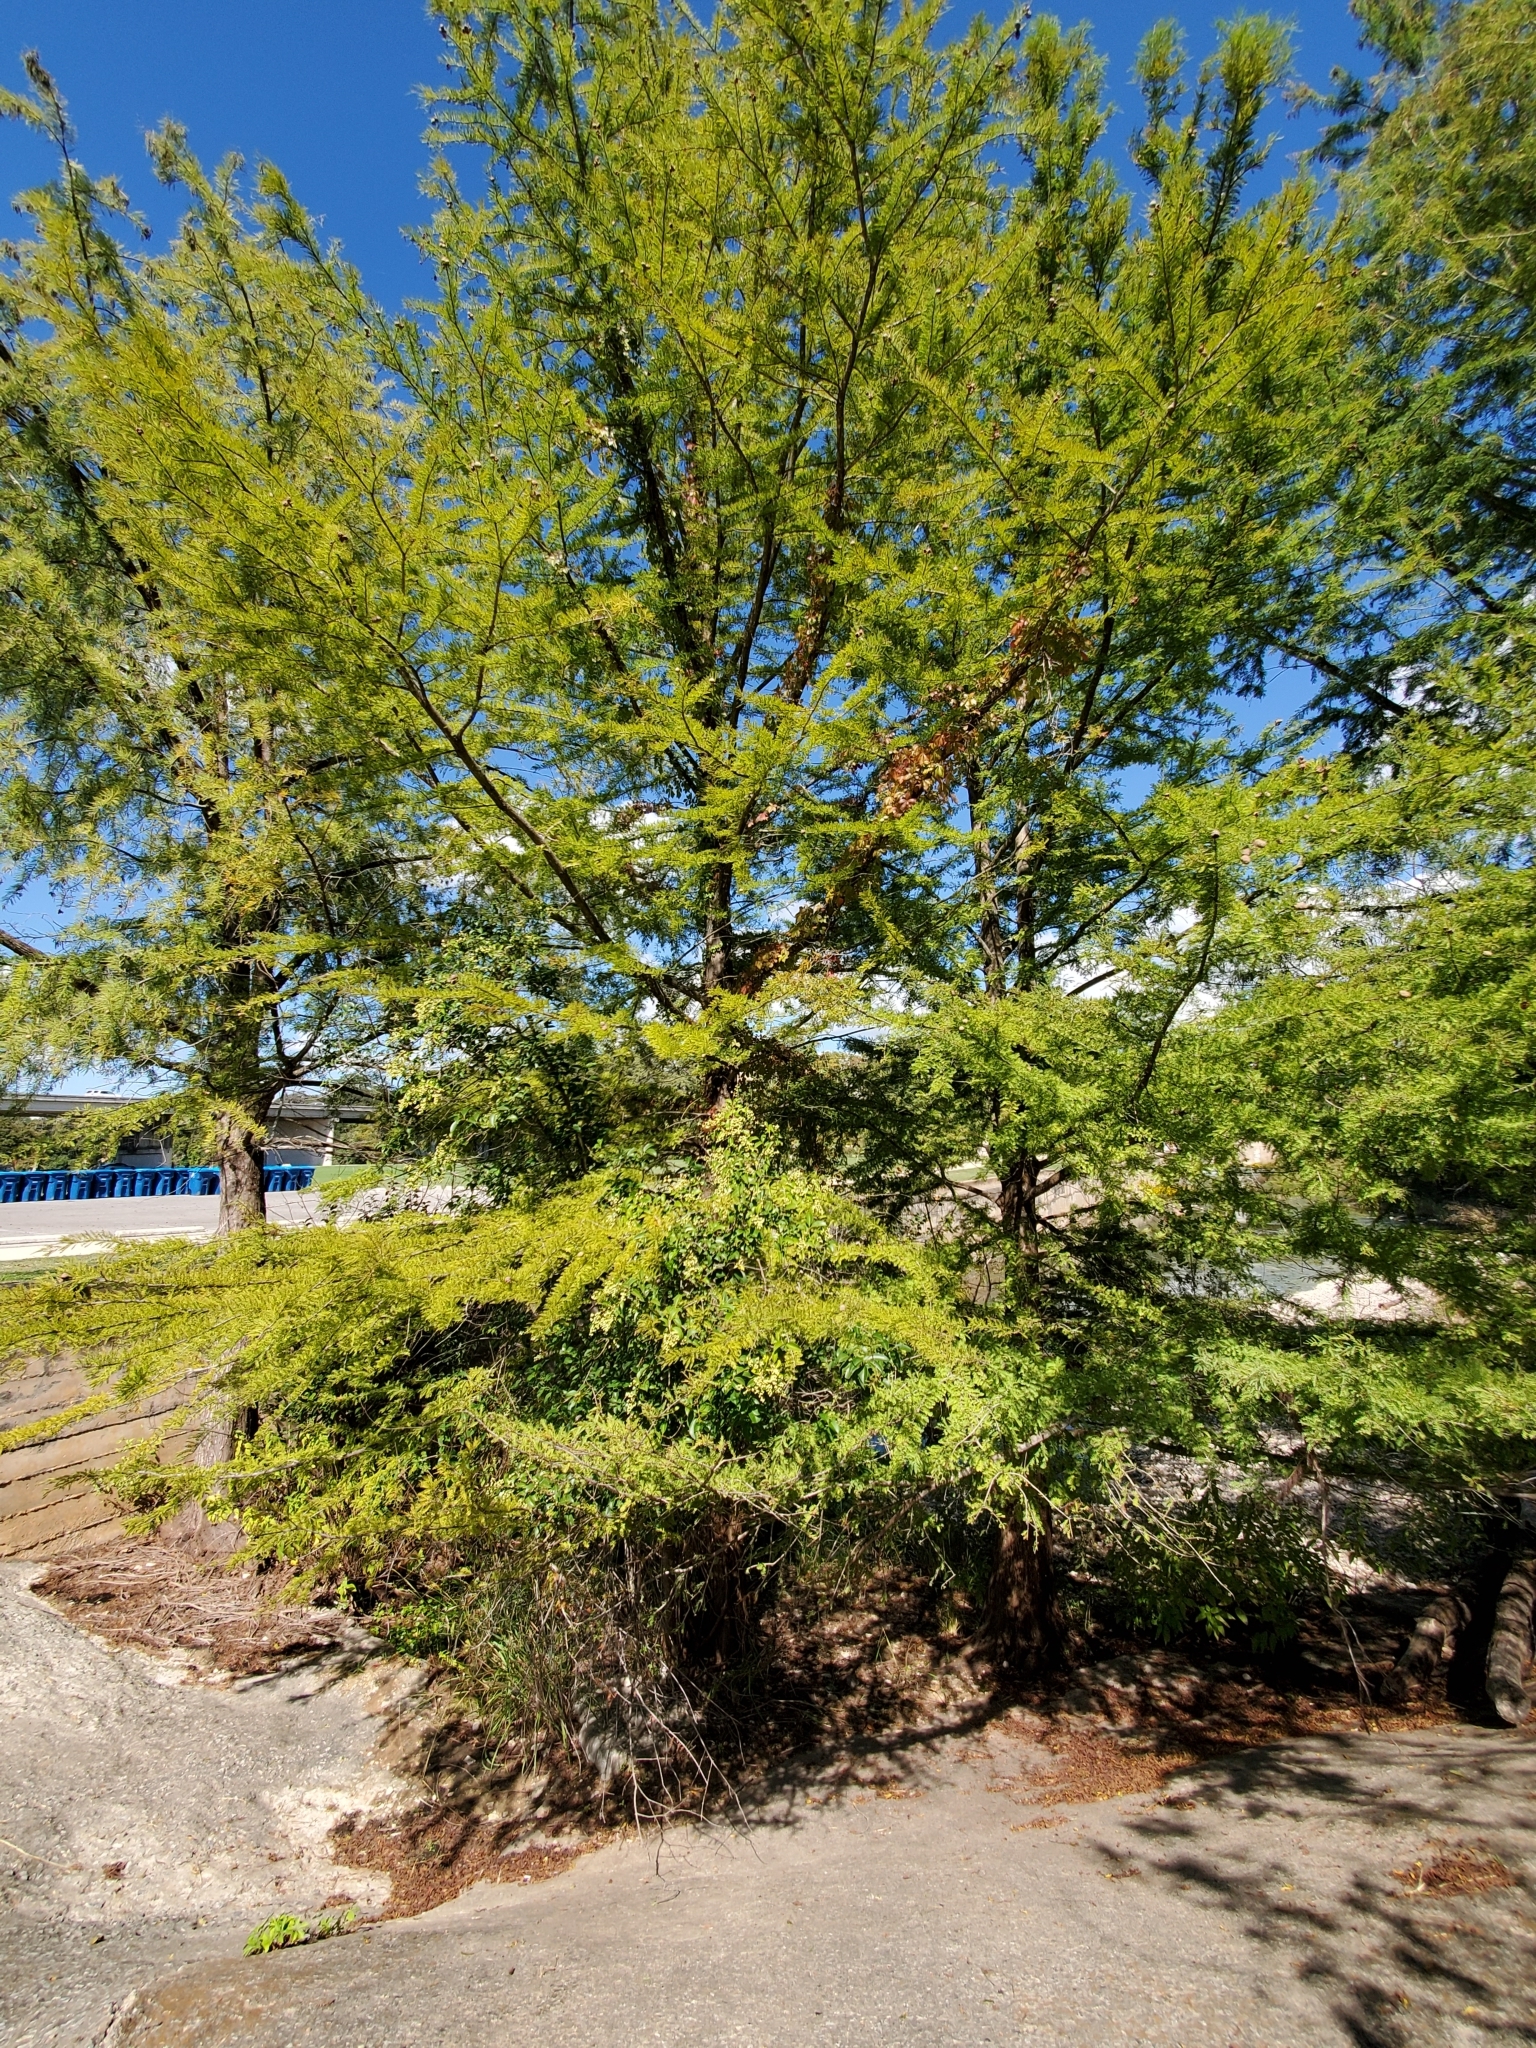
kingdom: Plantae
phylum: Tracheophyta
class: Pinopsida
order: Pinales
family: Cupressaceae
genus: Taxodium
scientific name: Taxodium distichum
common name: Bald cypress
